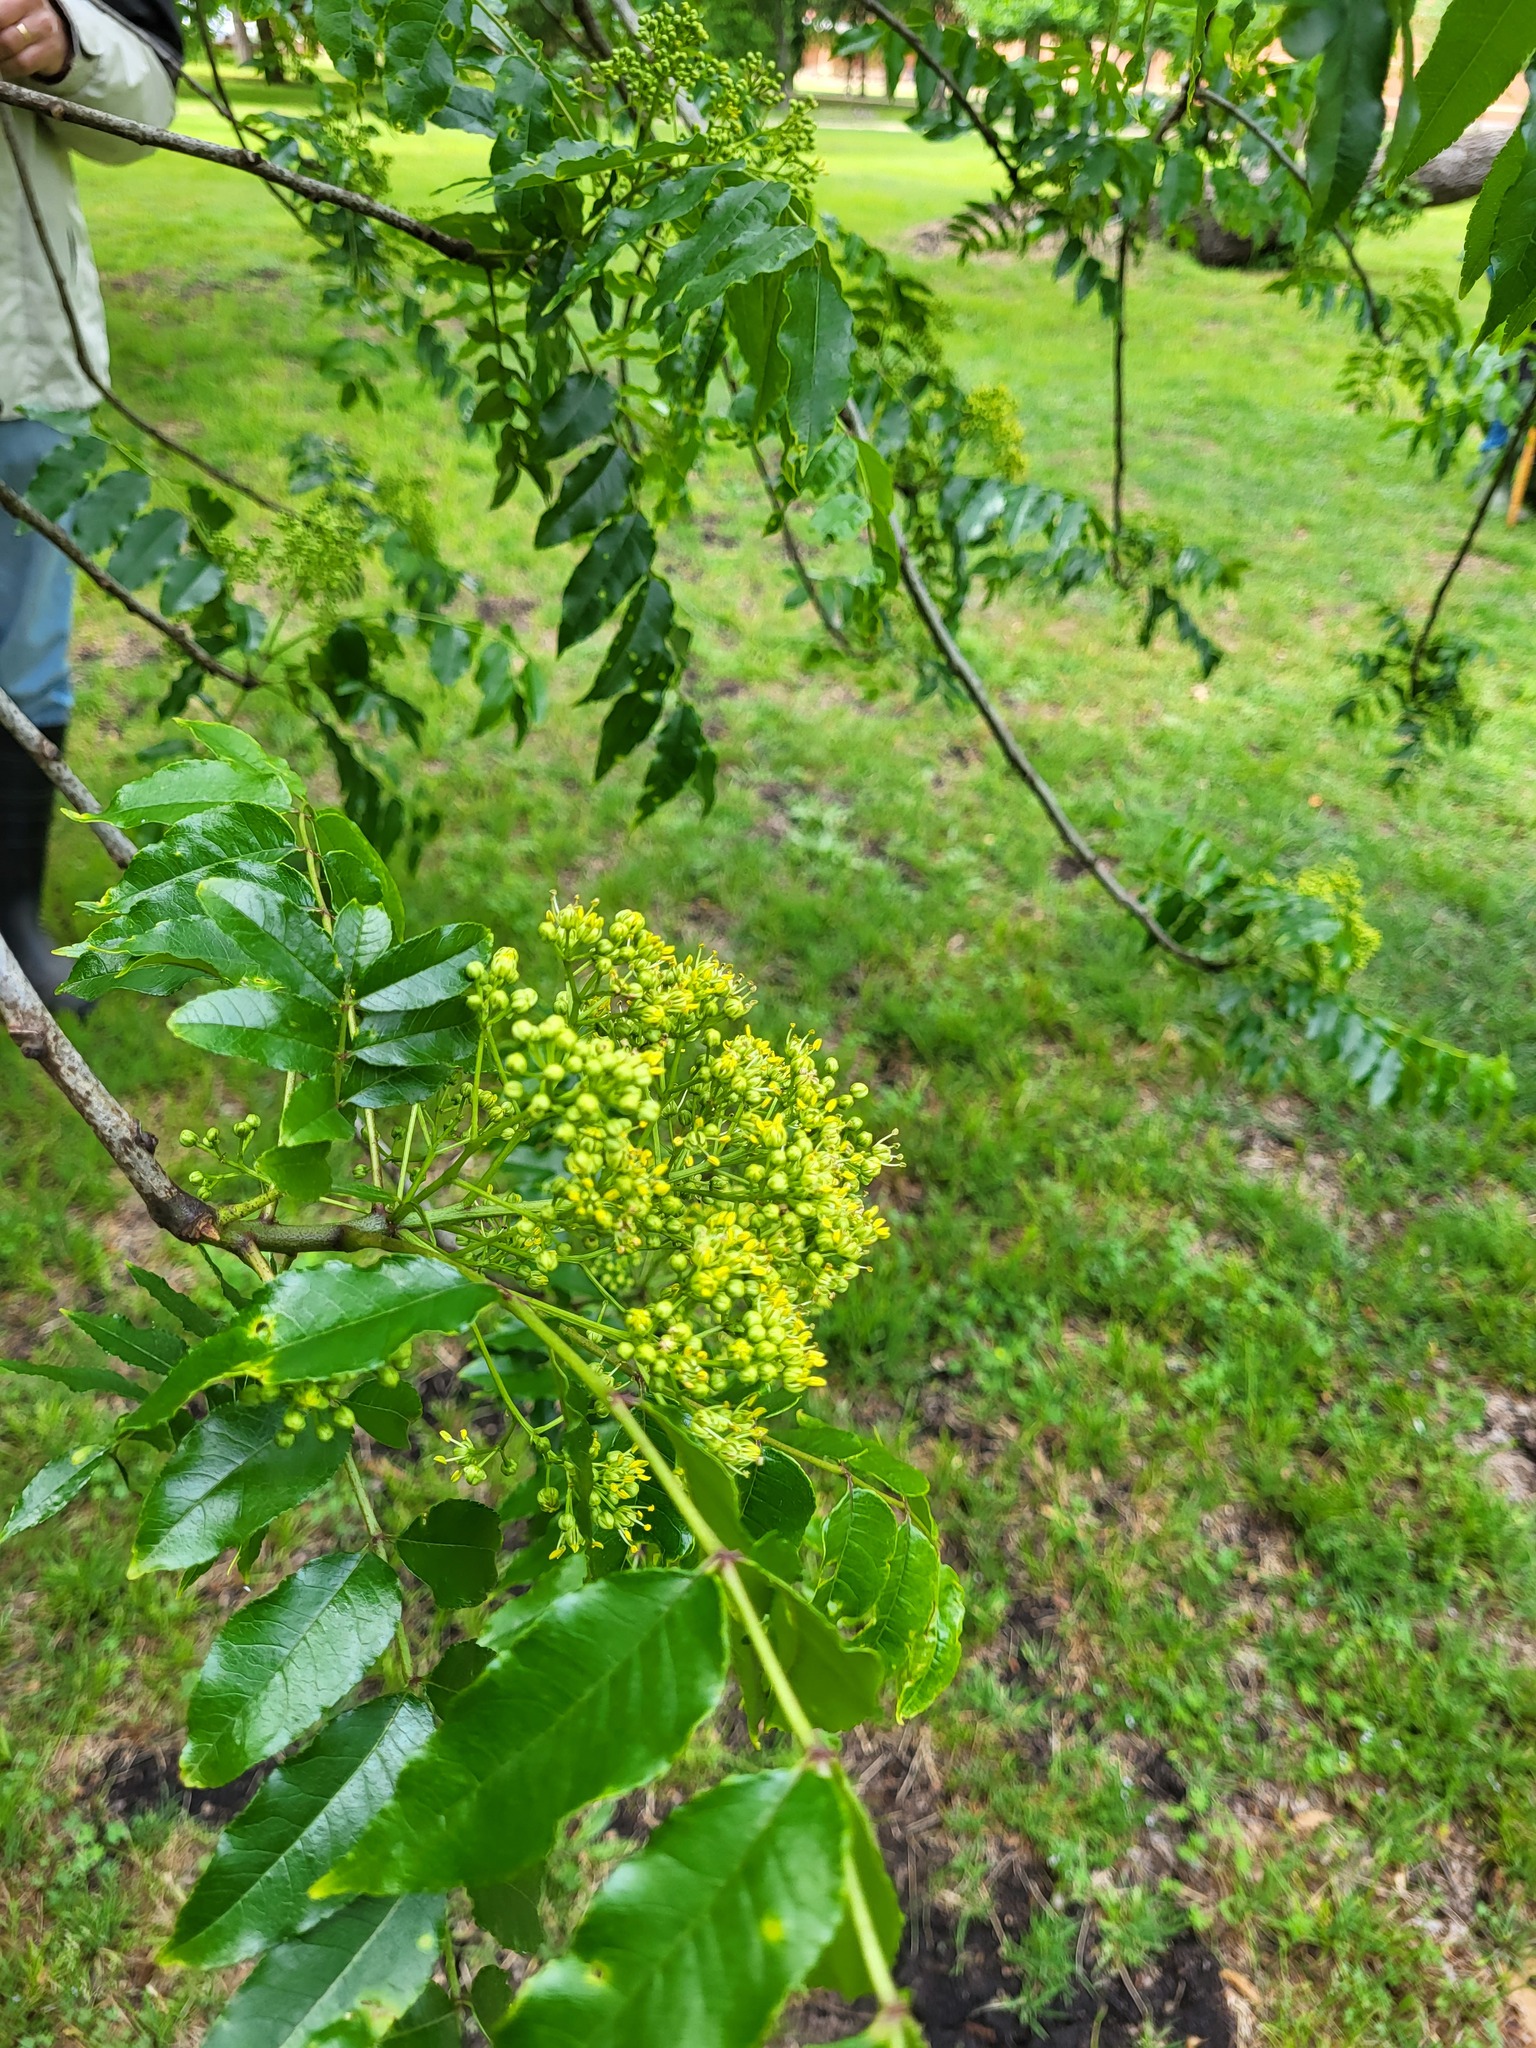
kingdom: Plantae
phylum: Tracheophyta
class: Magnoliopsida
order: Sapindales
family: Rutaceae
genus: Zanthoxylum
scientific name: Zanthoxylum clava-herculis
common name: Hercules'-club
